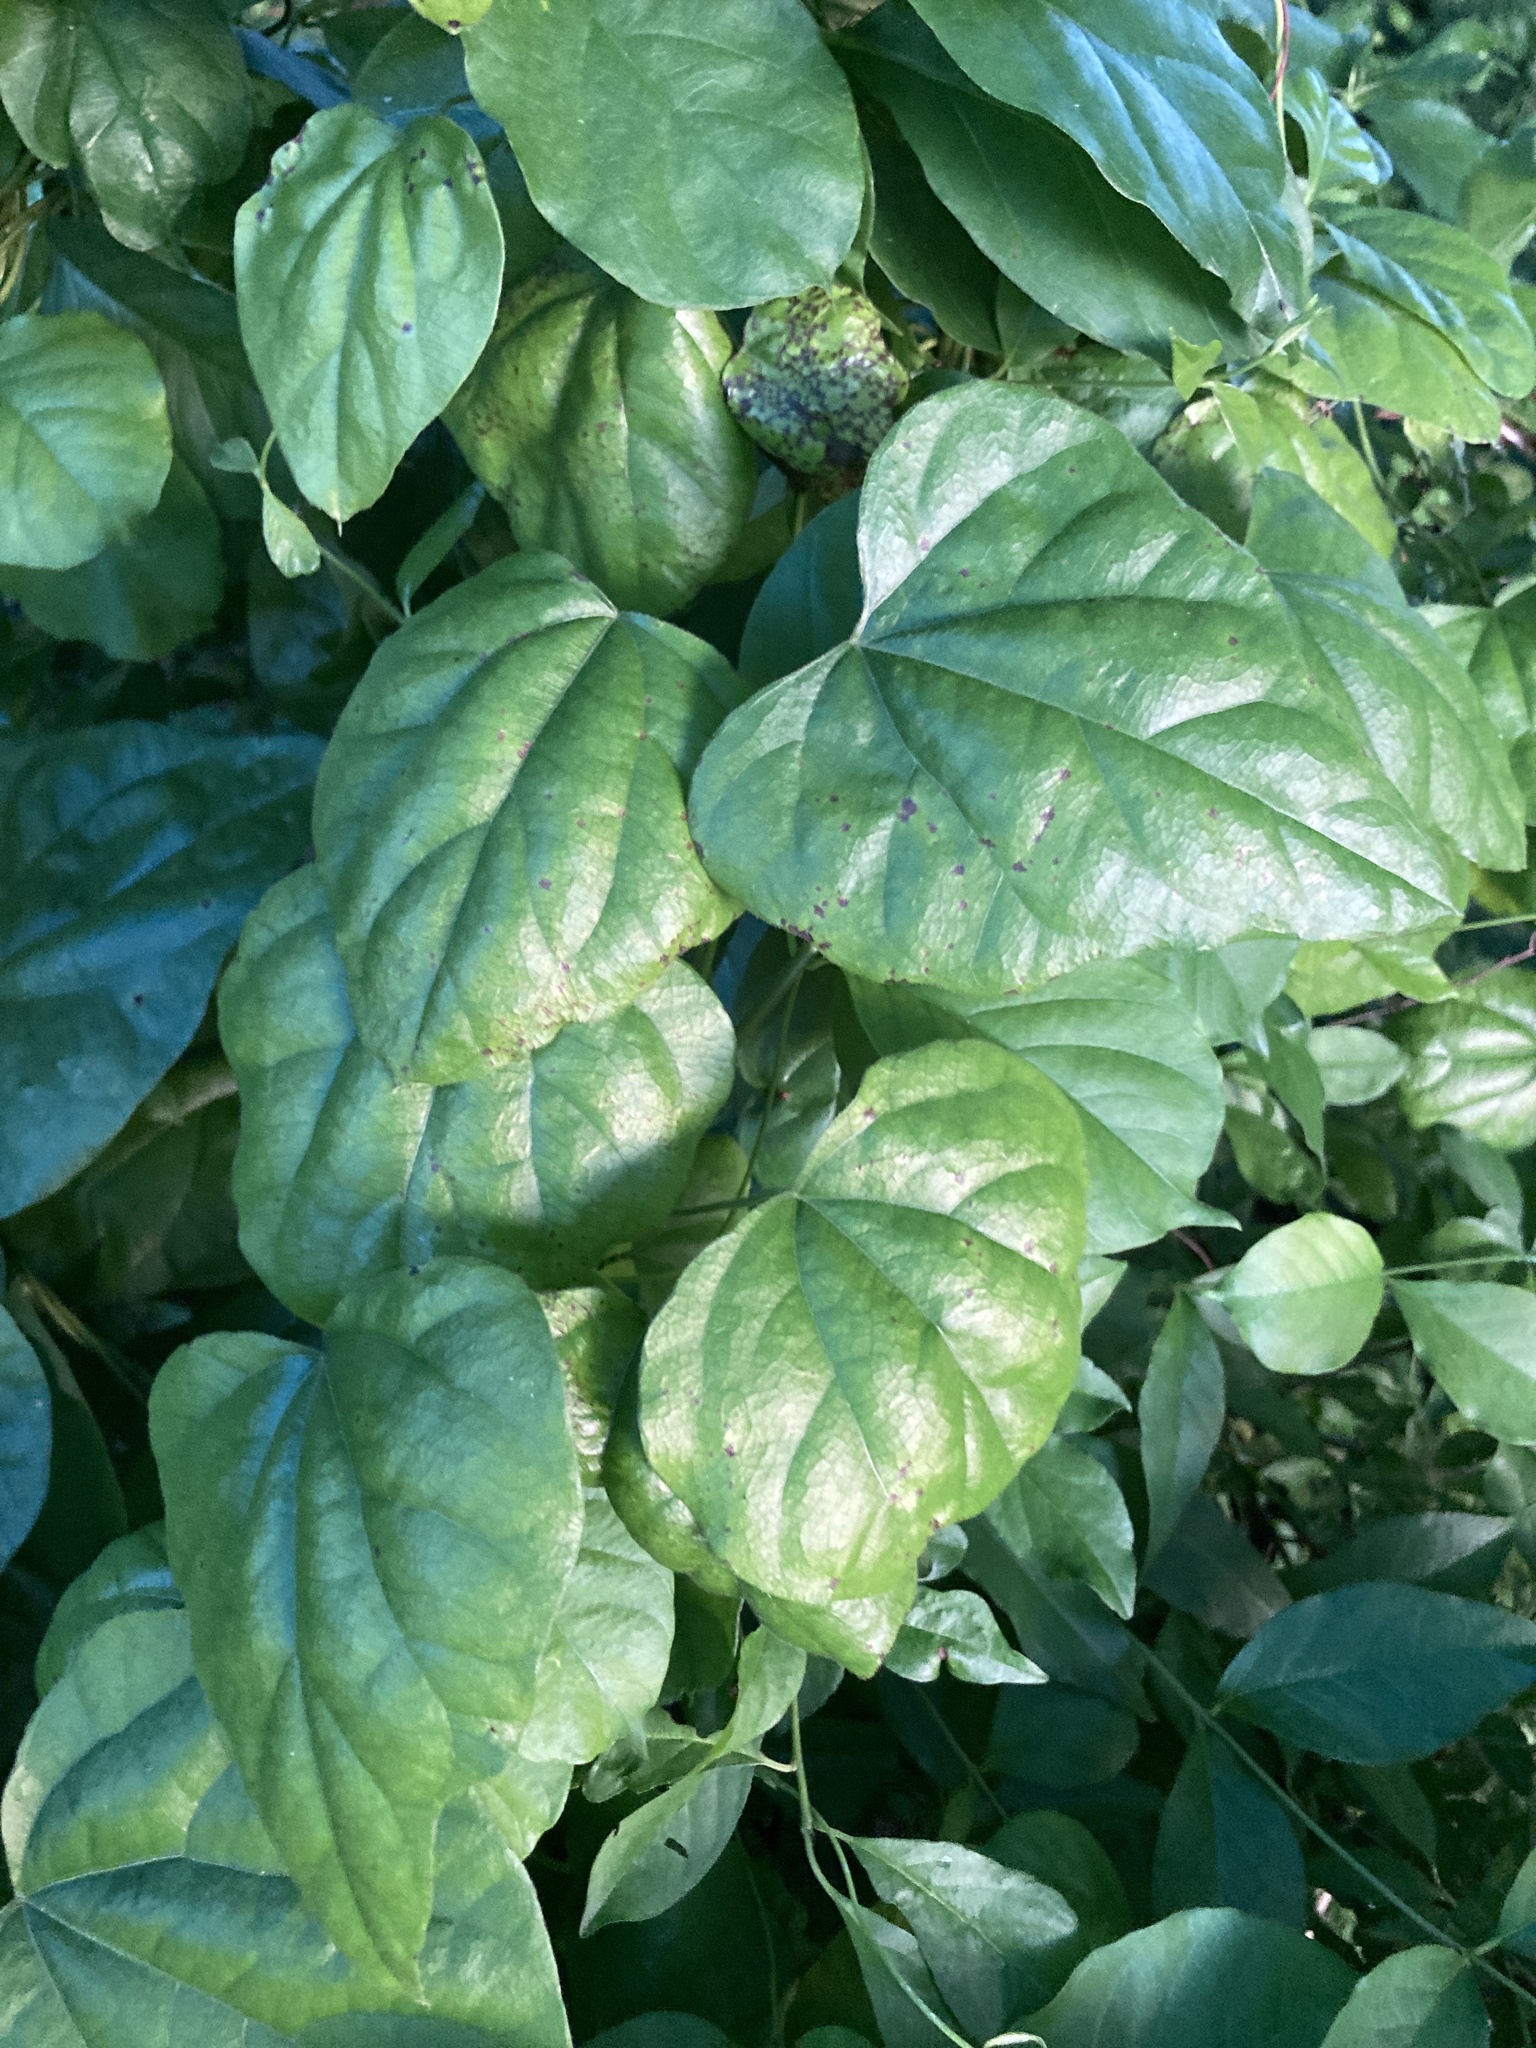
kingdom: Plantae
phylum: Tracheophyta
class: Magnoliopsida
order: Ranunculales
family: Menispermaceae
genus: Cocculus
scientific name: Cocculus carolinus
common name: Carolina moonseed
